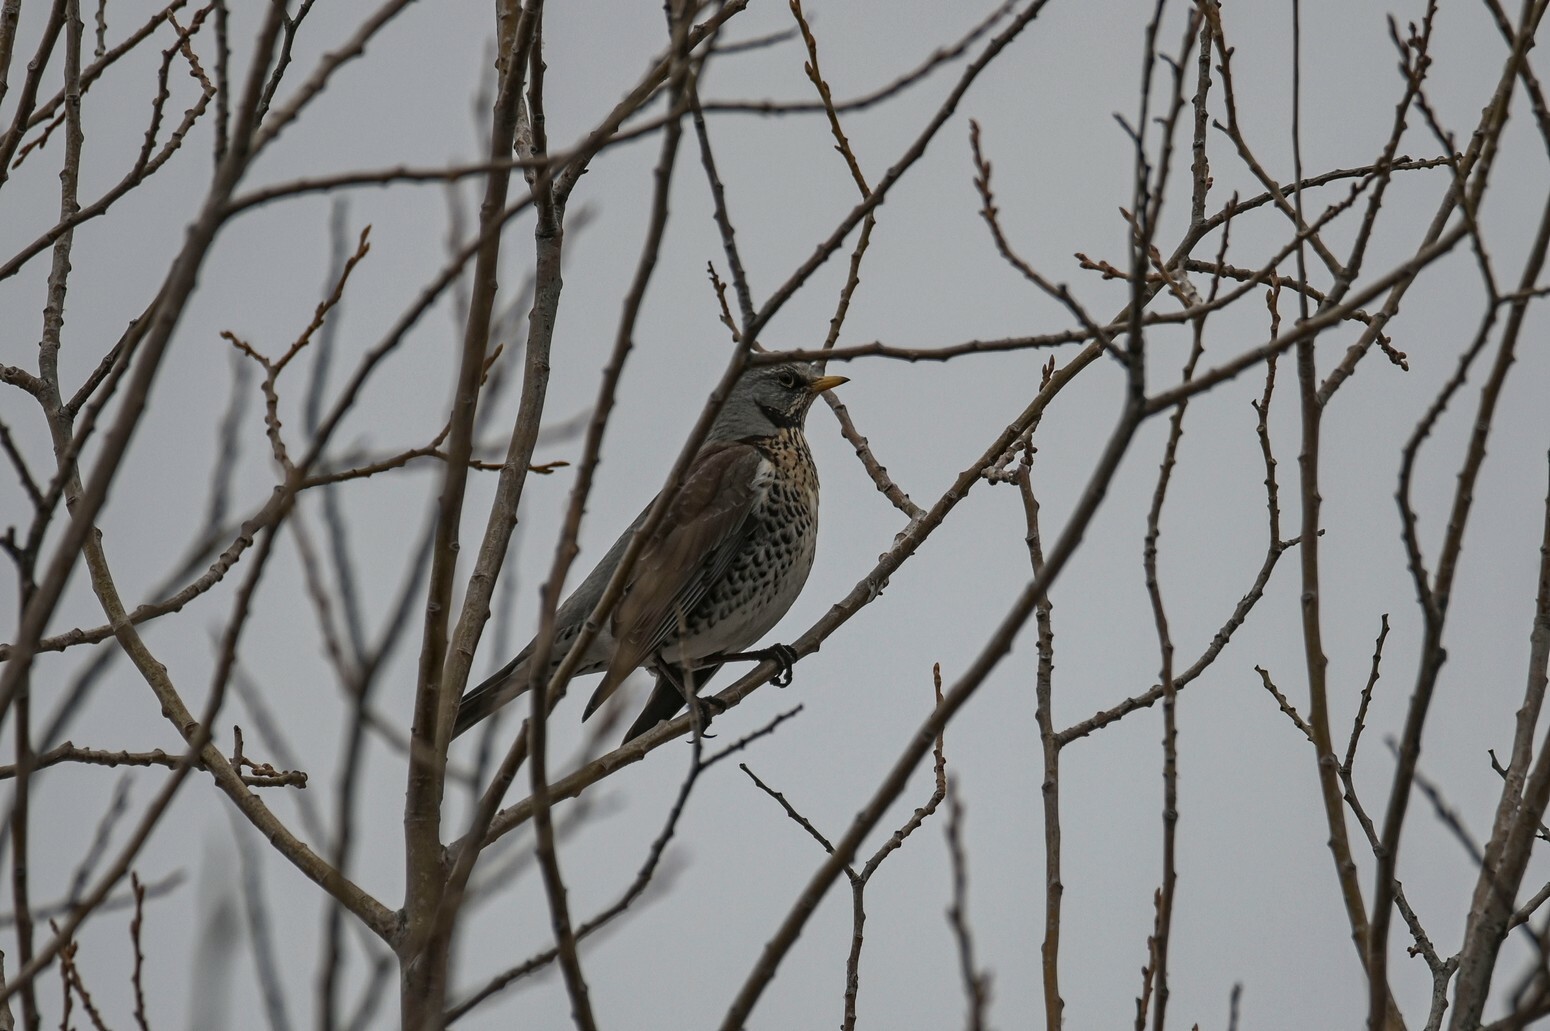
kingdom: Animalia
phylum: Chordata
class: Aves
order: Passeriformes
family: Turdidae
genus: Turdus
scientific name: Turdus pilaris
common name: Fieldfare
